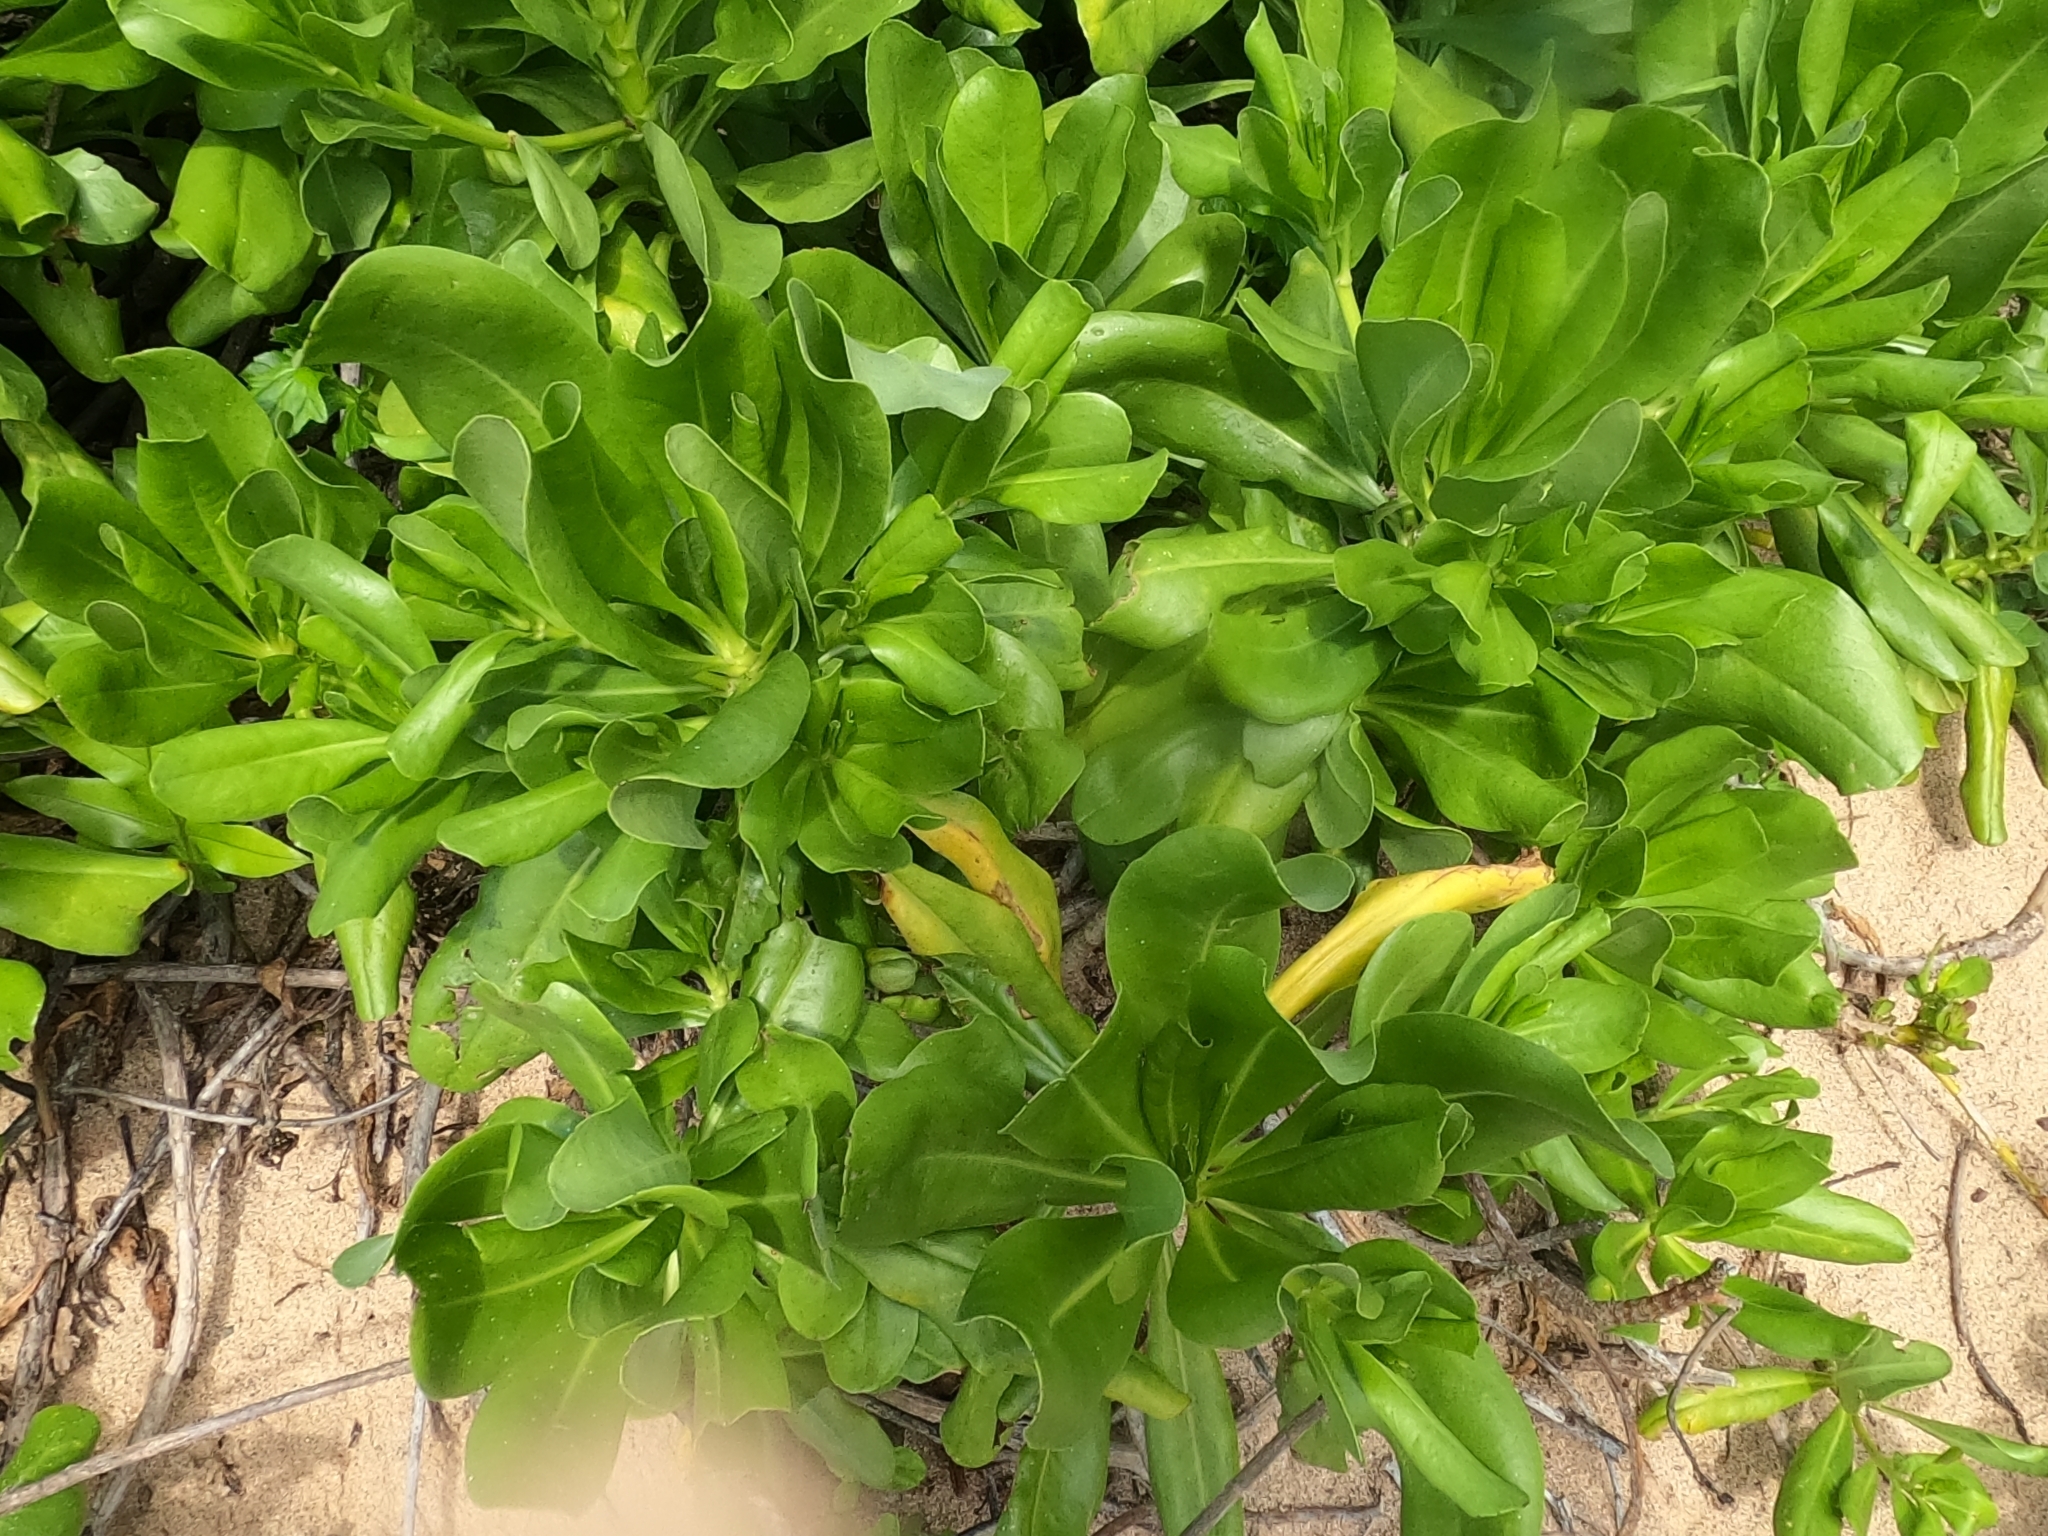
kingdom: Plantae
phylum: Tracheophyta
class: Magnoliopsida
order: Asterales
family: Goodeniaceae
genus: Scaevola
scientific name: Scaevola taccada
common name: Sea lettucetree
